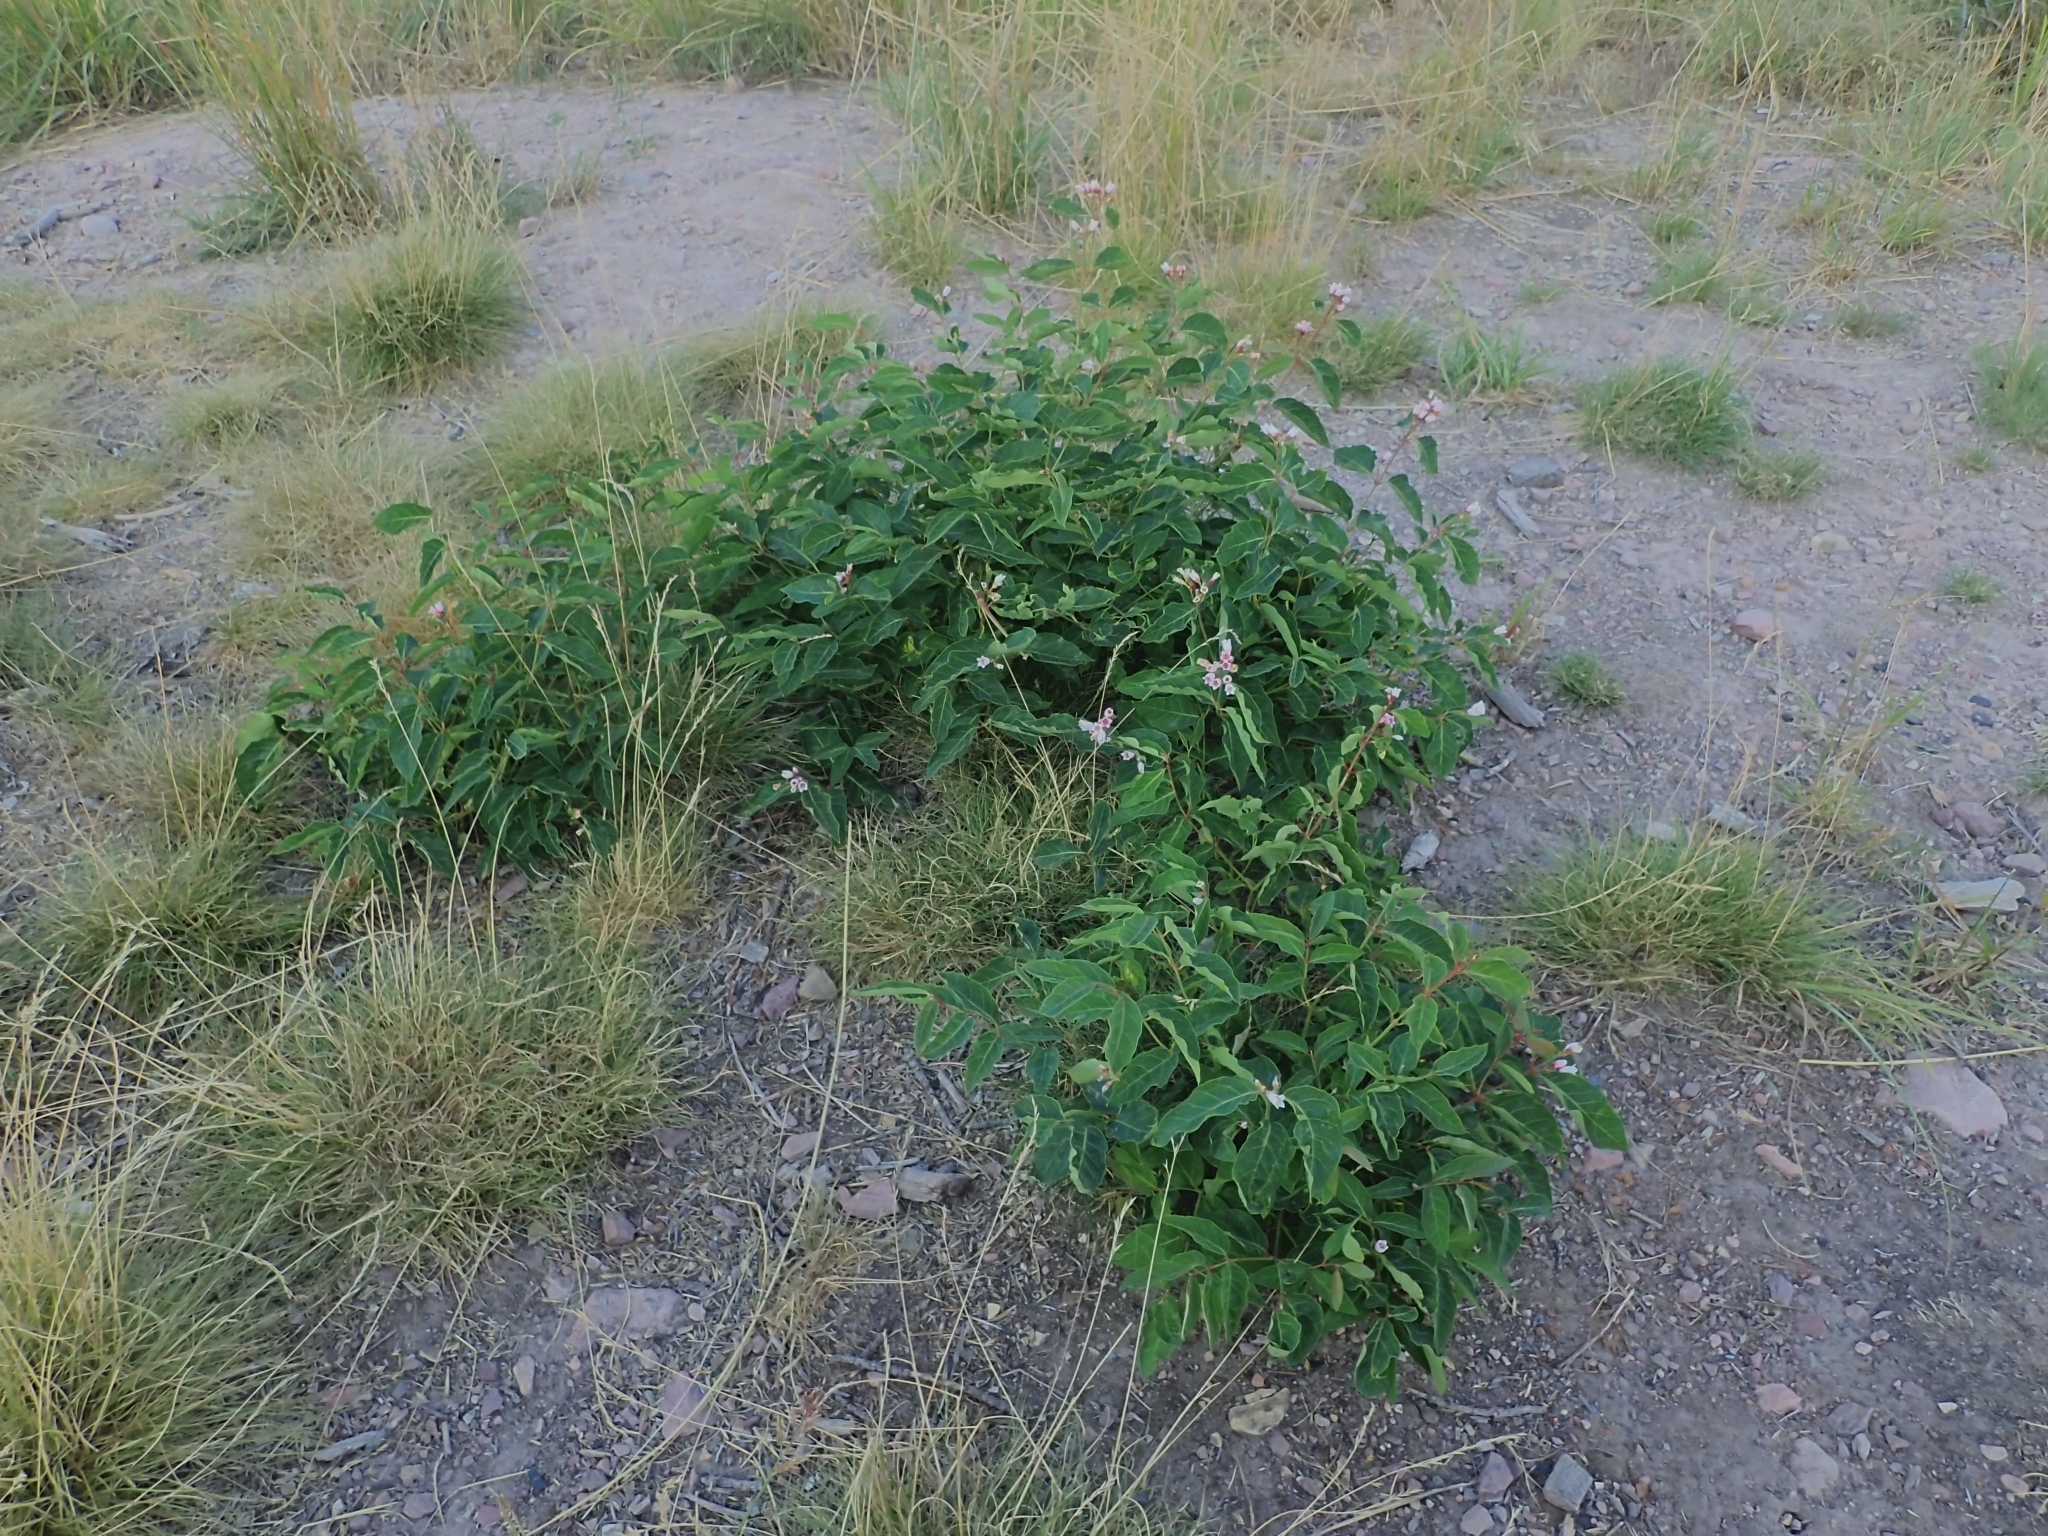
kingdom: Plantae
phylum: Tracheophyta
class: Magnoliopsida
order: Gentianales
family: Apocynaceae
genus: Apocynum
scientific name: Apocynum androsaemifolium
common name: Spreading dogbane
